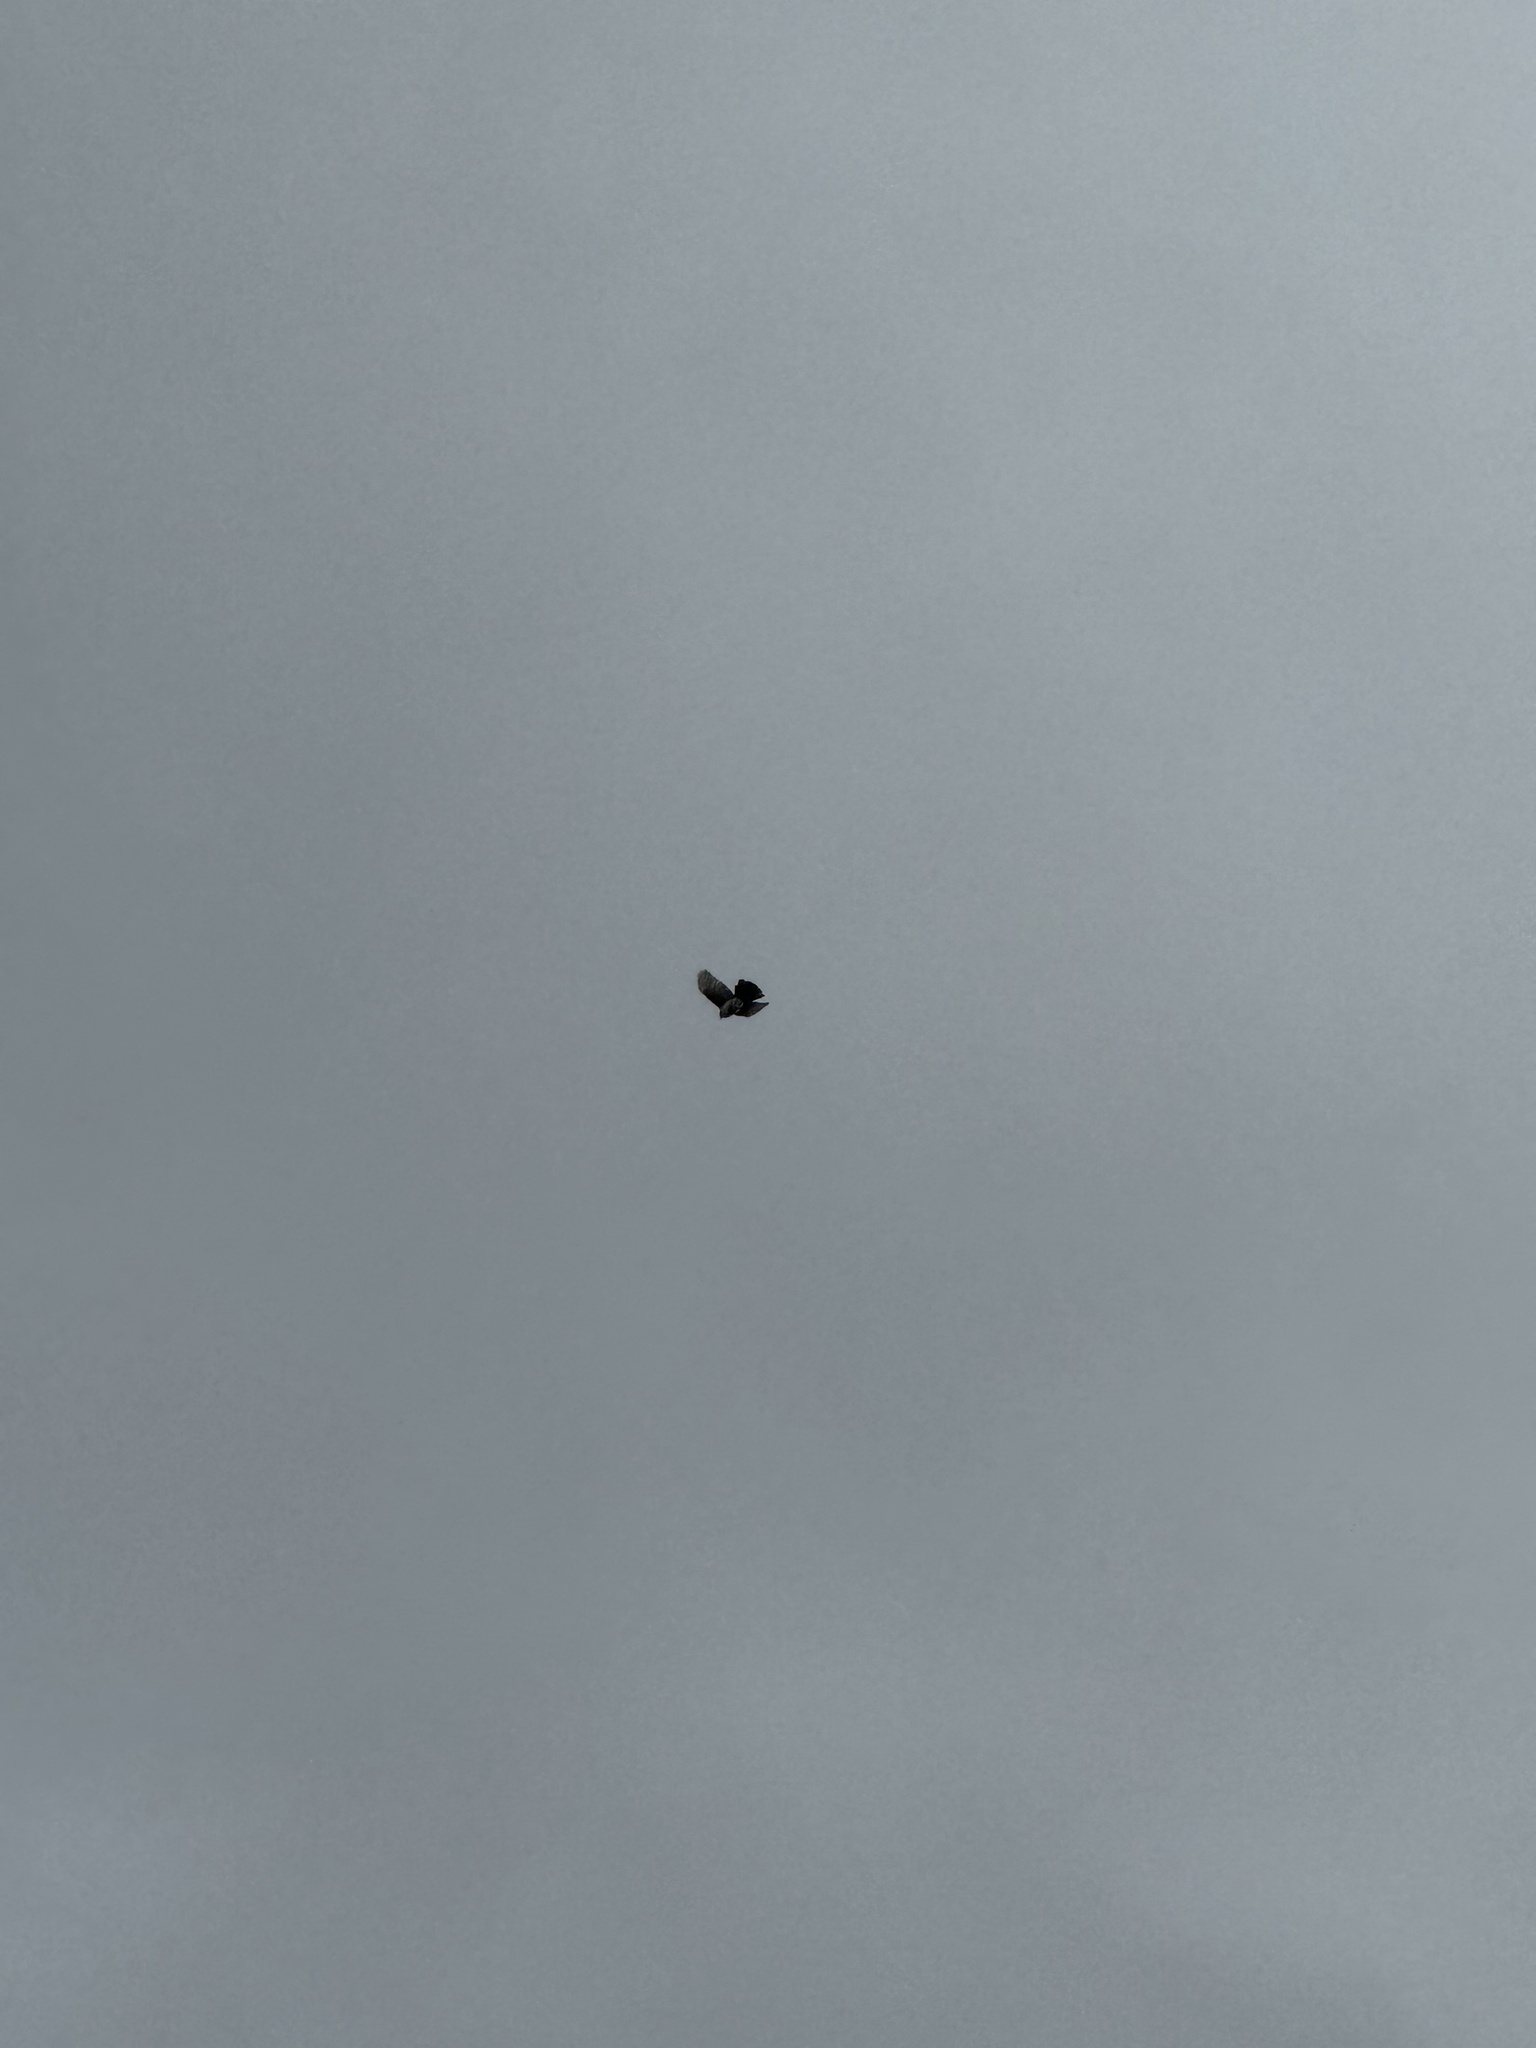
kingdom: Animalia
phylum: Chordata
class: Aves
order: Passeriformes
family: Corvidae
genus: Aphelocoma
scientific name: Aphelocoma californica
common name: California scrub-jay
